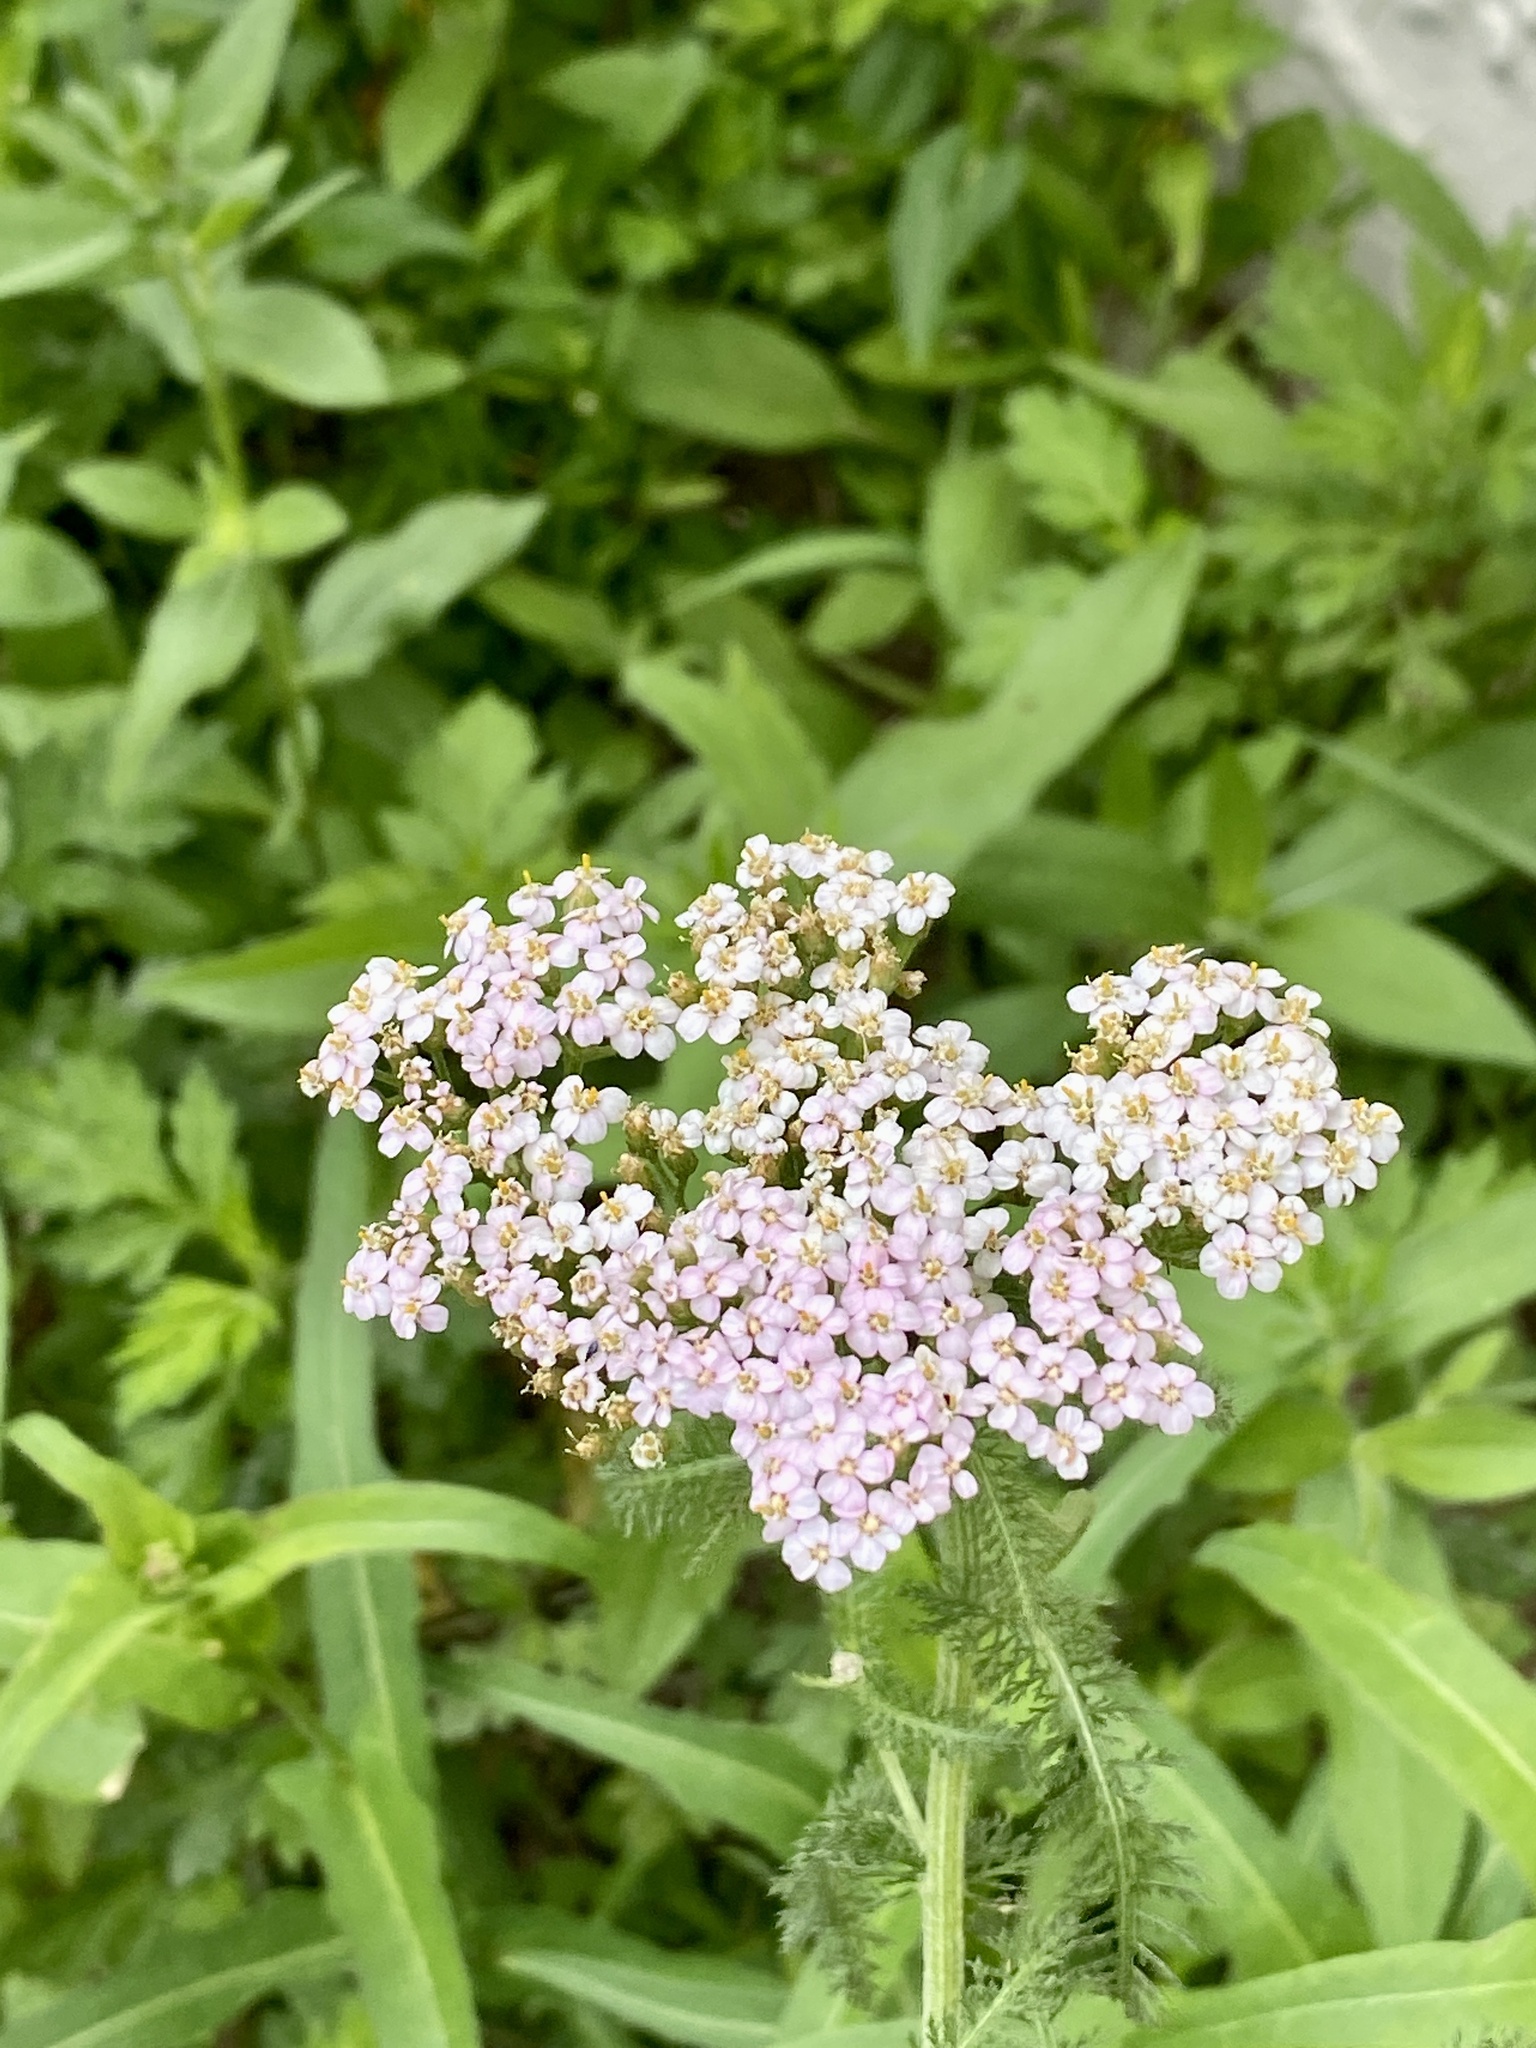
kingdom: Plantae
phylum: Tracheophyta
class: Magnoliopsida
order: Asterales
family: Asteraceae
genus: Achillea
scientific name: Achillea millefolium
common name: Yarrow
